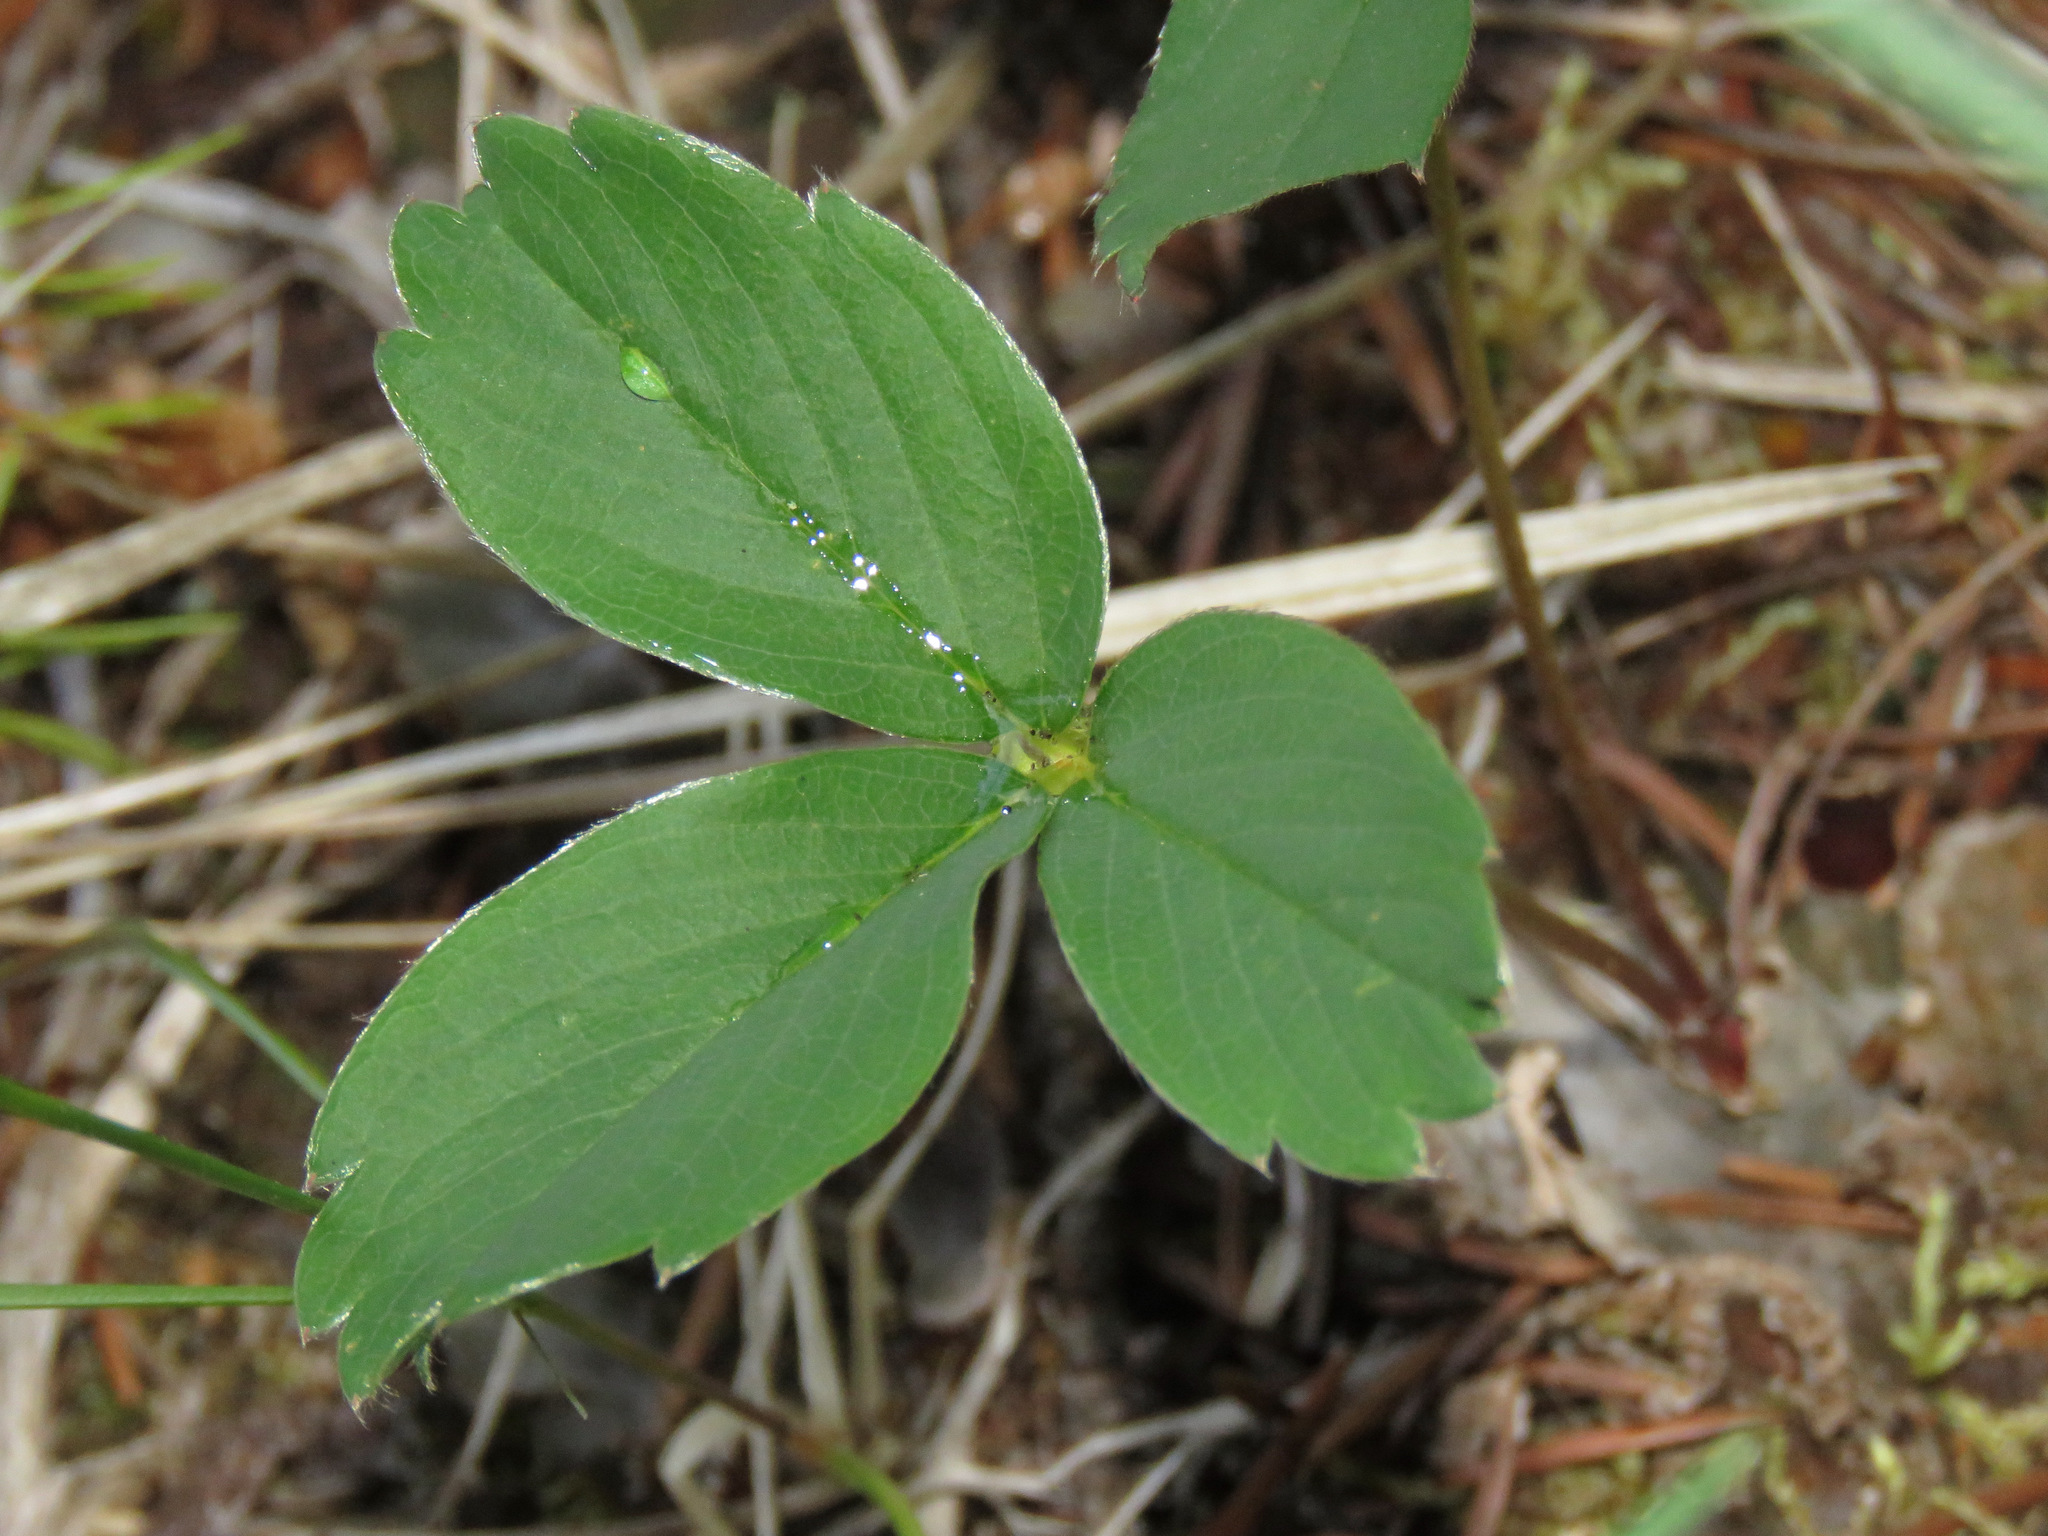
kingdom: Plantae
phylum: Tracheophyta
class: Magnoliopsida
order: Rosales
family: Rosaceae
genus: Fragaria
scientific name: Fragaria virginiana
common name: Thickleaved wild strawberry
